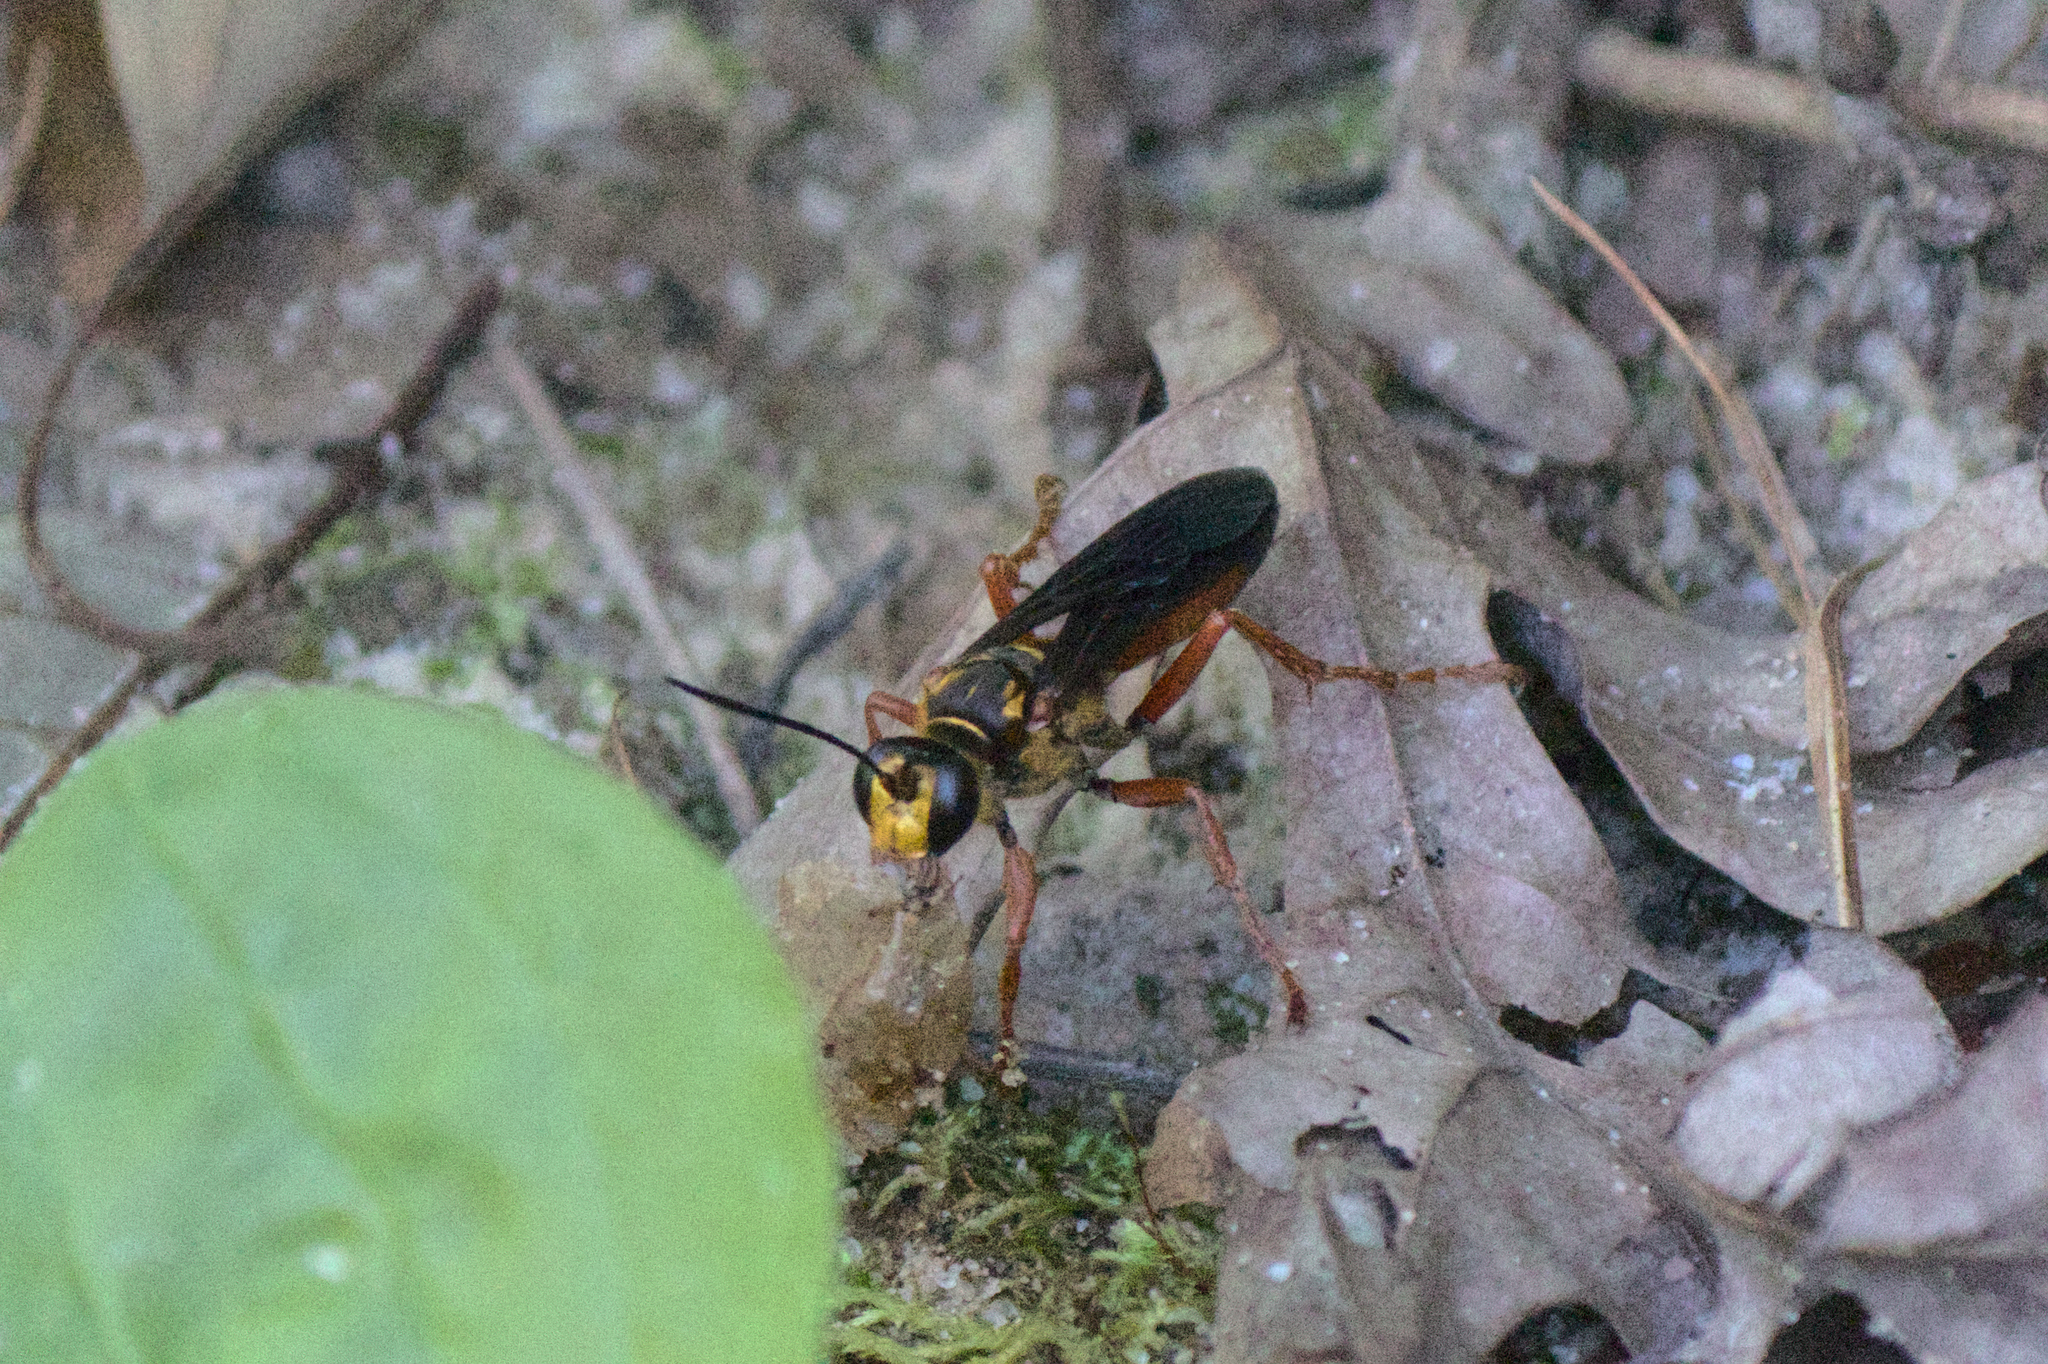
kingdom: Animalia
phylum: Arthropoda
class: Insecta
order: Hymenoptera
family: Sphecidae
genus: Sphex
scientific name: Sphex ichneumoneus
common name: Great golden digger wasp
